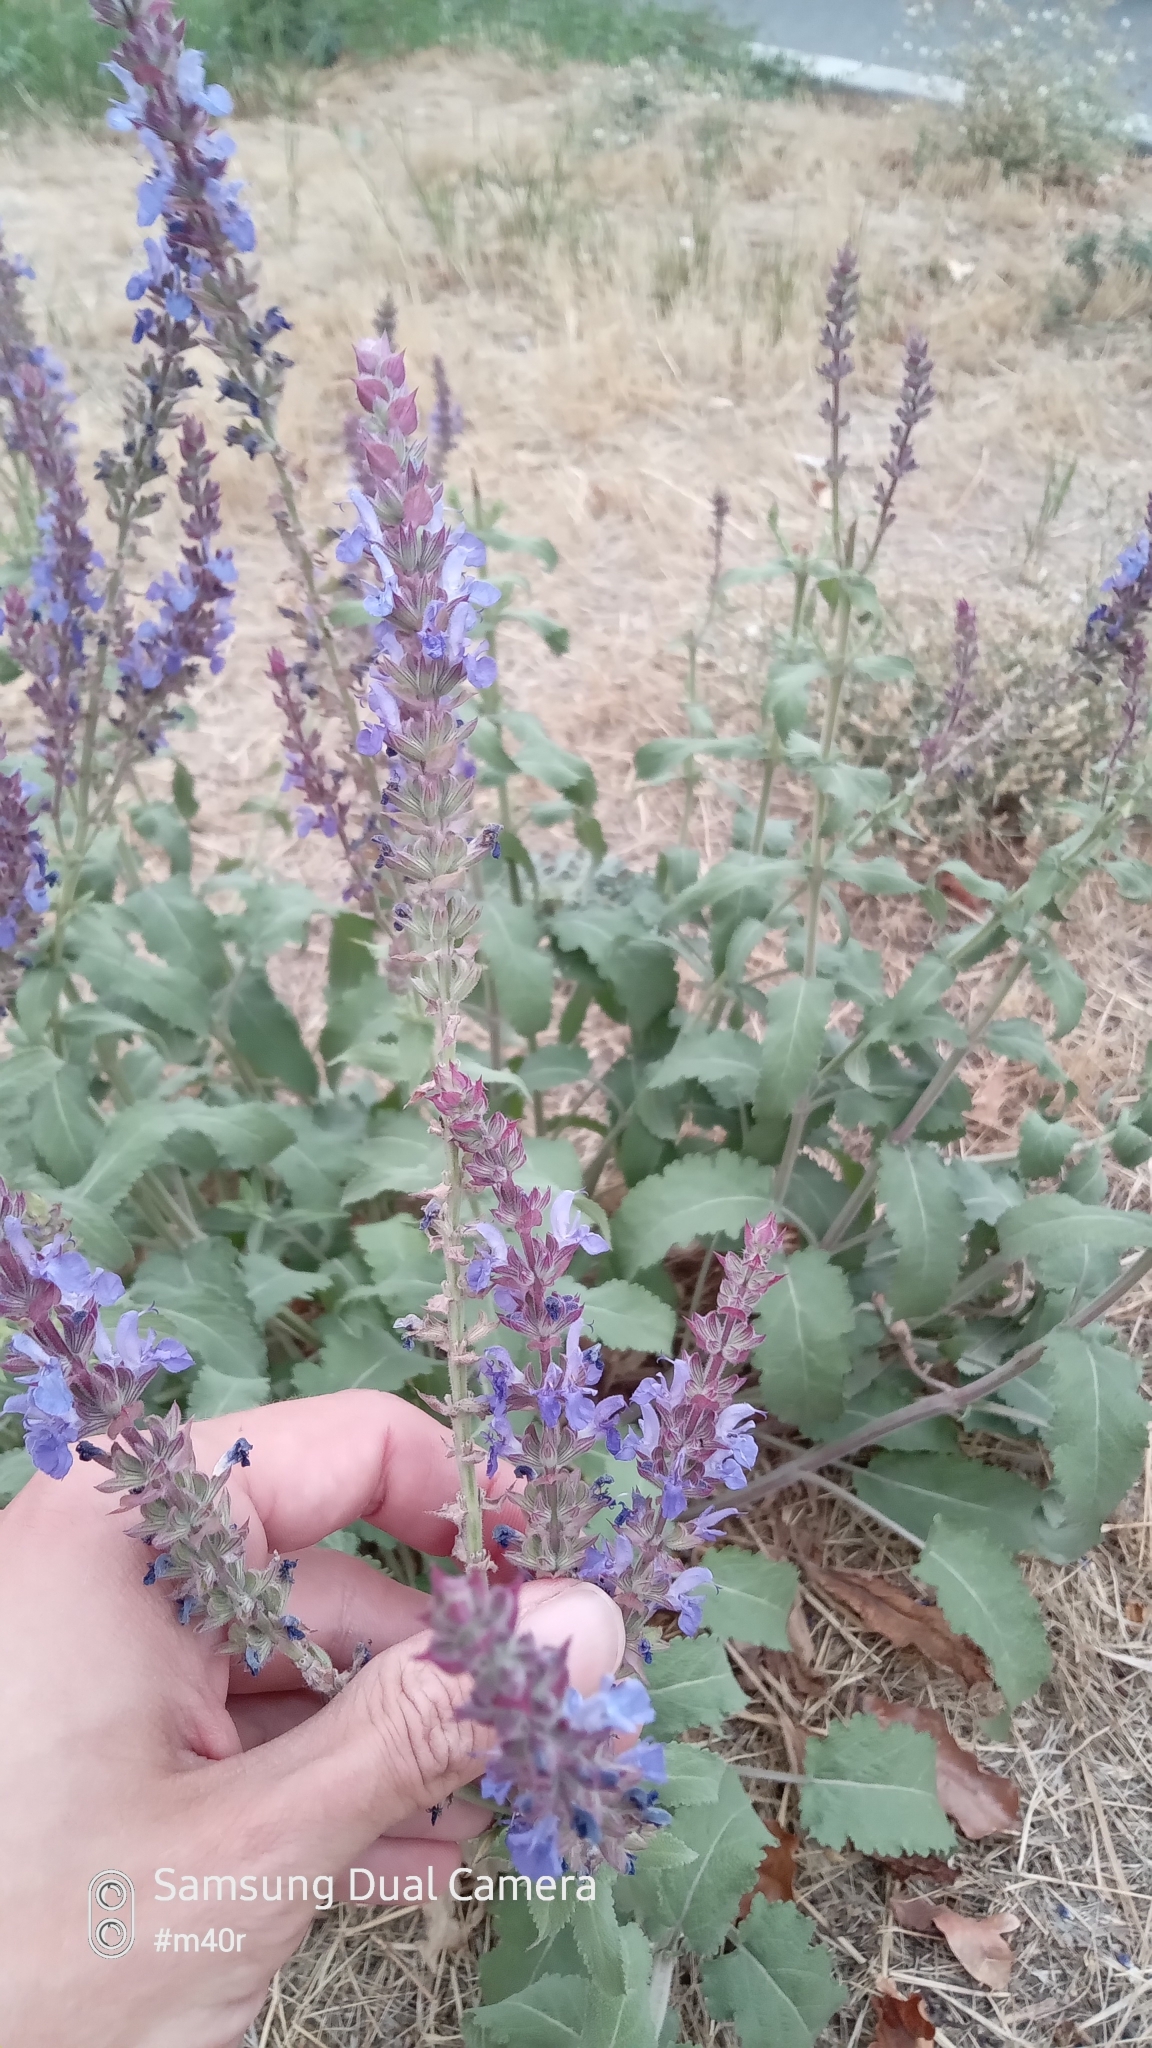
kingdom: Plantae
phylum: Tracheophyta
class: Magnoliopsida
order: Lamiales
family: Lamiaceae
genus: Salvia
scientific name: Salvia deserta
